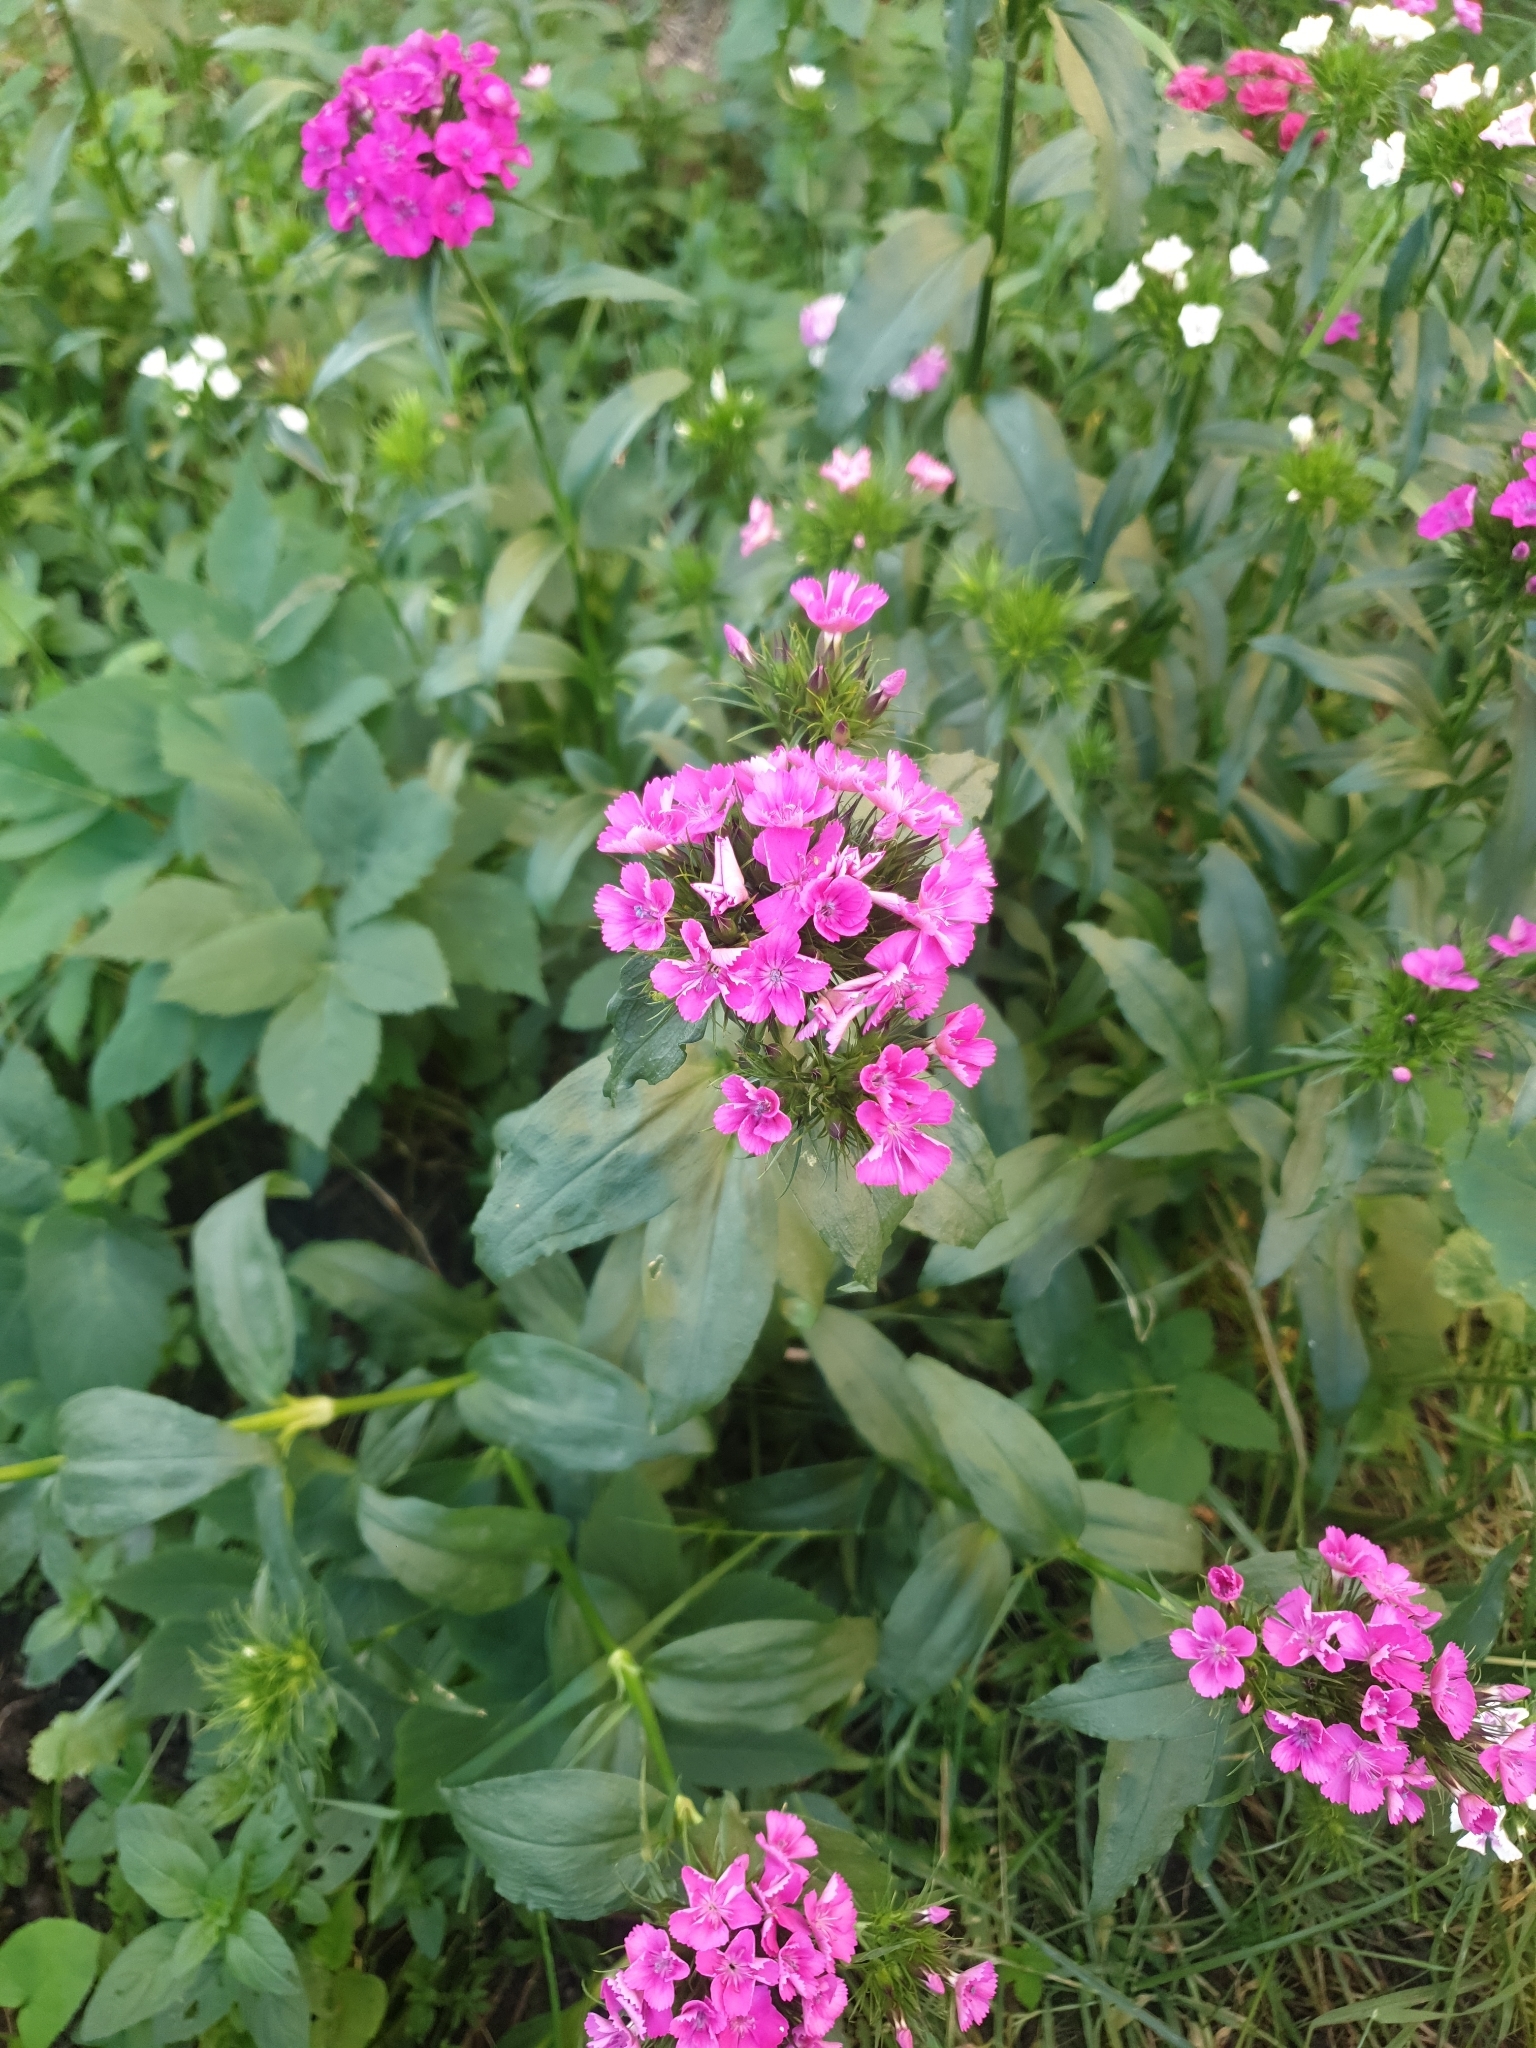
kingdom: Plantae
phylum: Tracheophyta
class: Magnoliopsida
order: Caryophyllales
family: Caryophyllaceae
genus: Dianthus
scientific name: Dianthus barbatus
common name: Sweet-william
